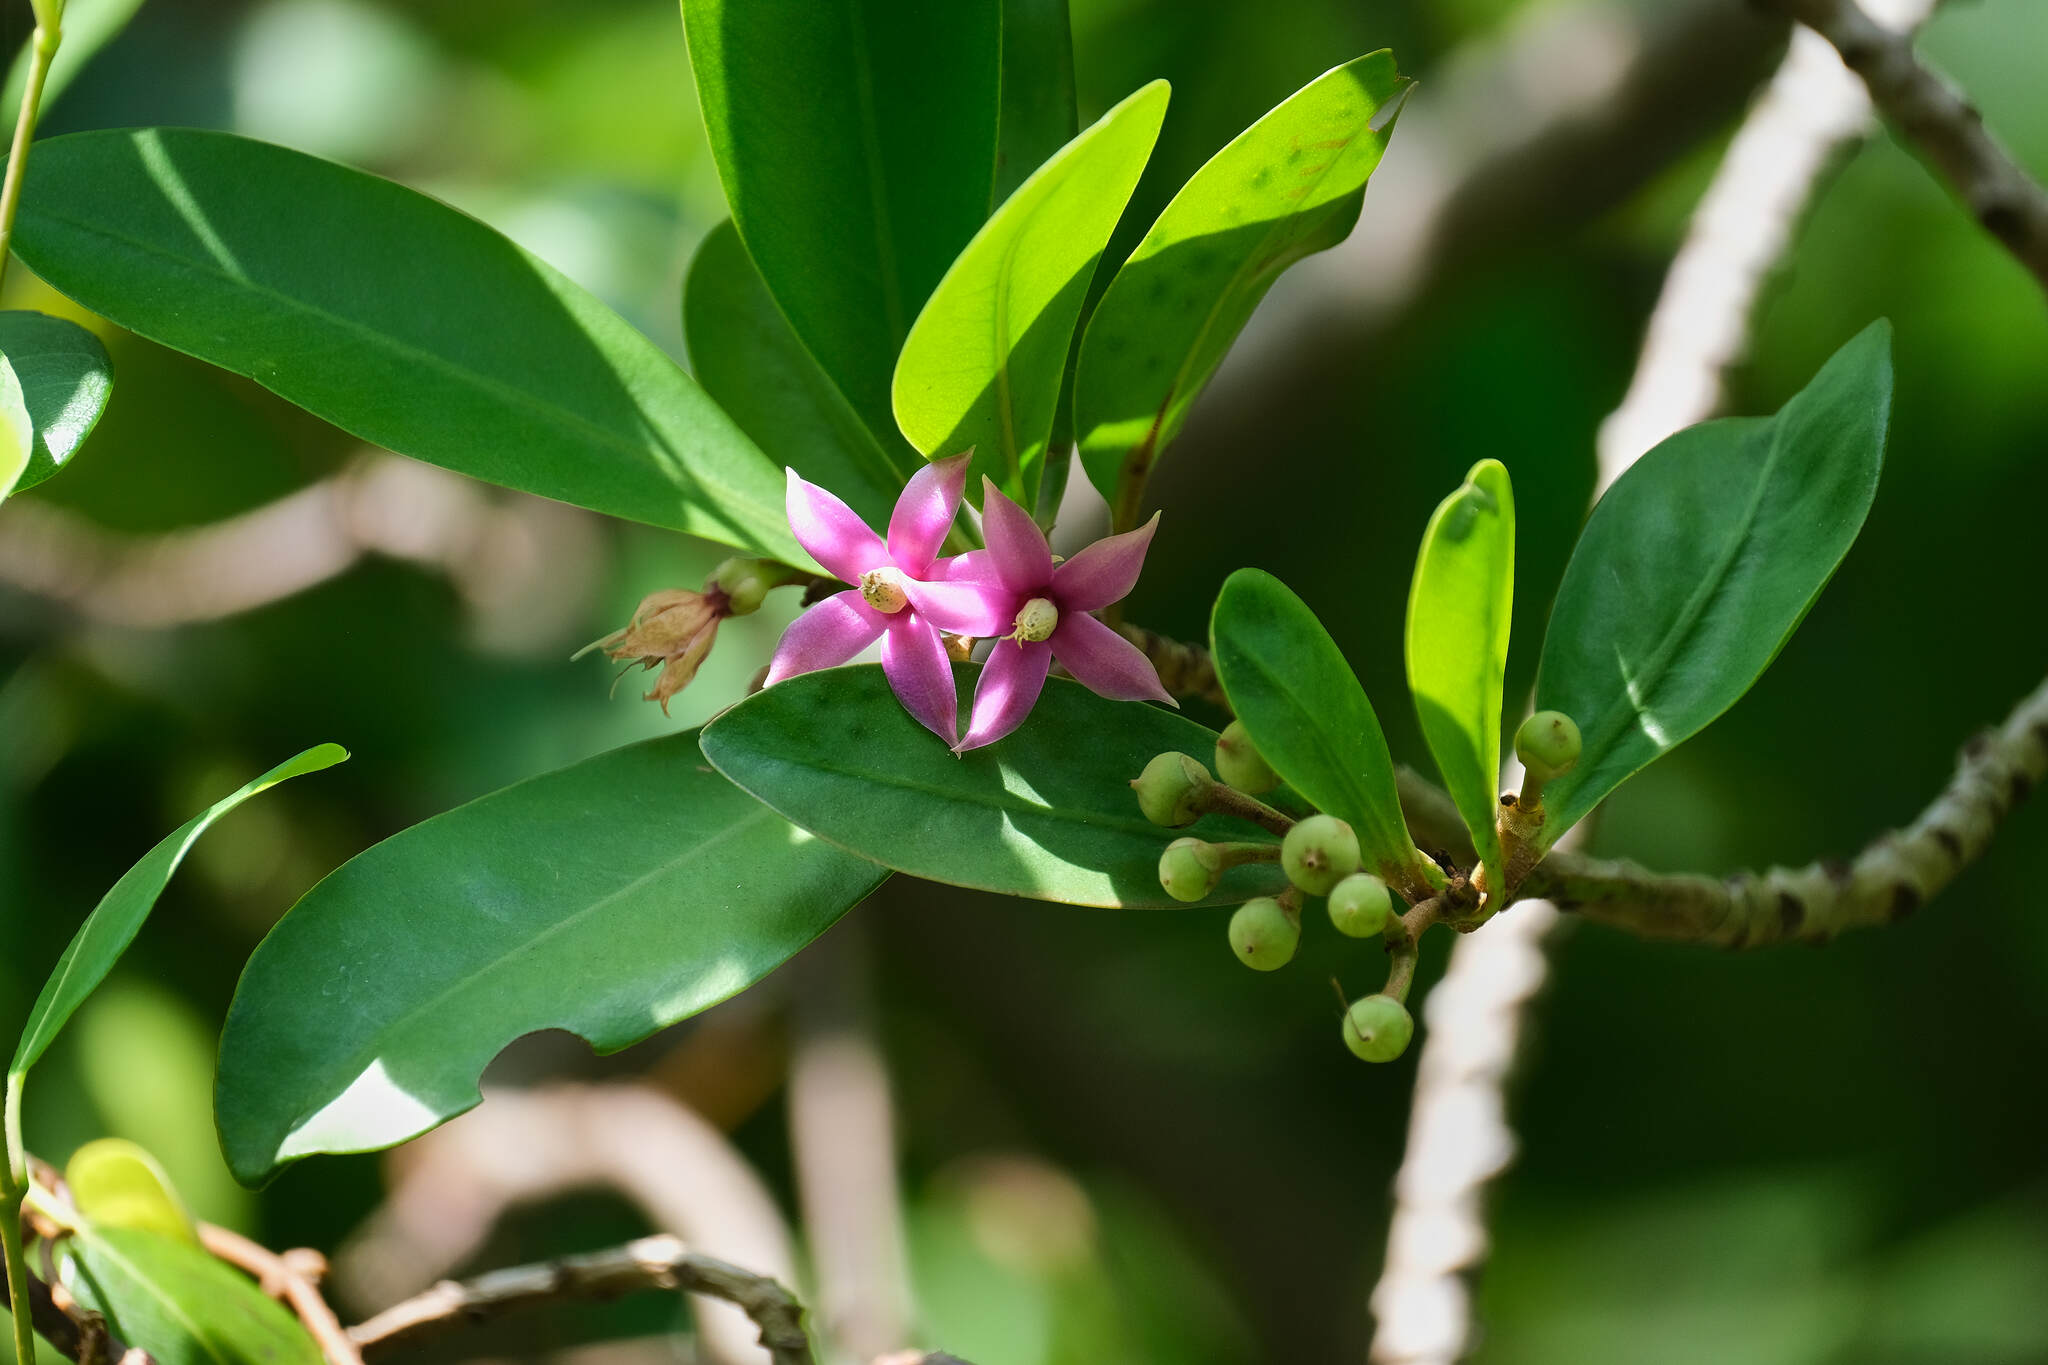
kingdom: Plantae
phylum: Tracheophyta
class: Magnoliopsida
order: Ericales
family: Primulaceae
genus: Ardisia
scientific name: Ardisia elliptica
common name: Shoebutton
